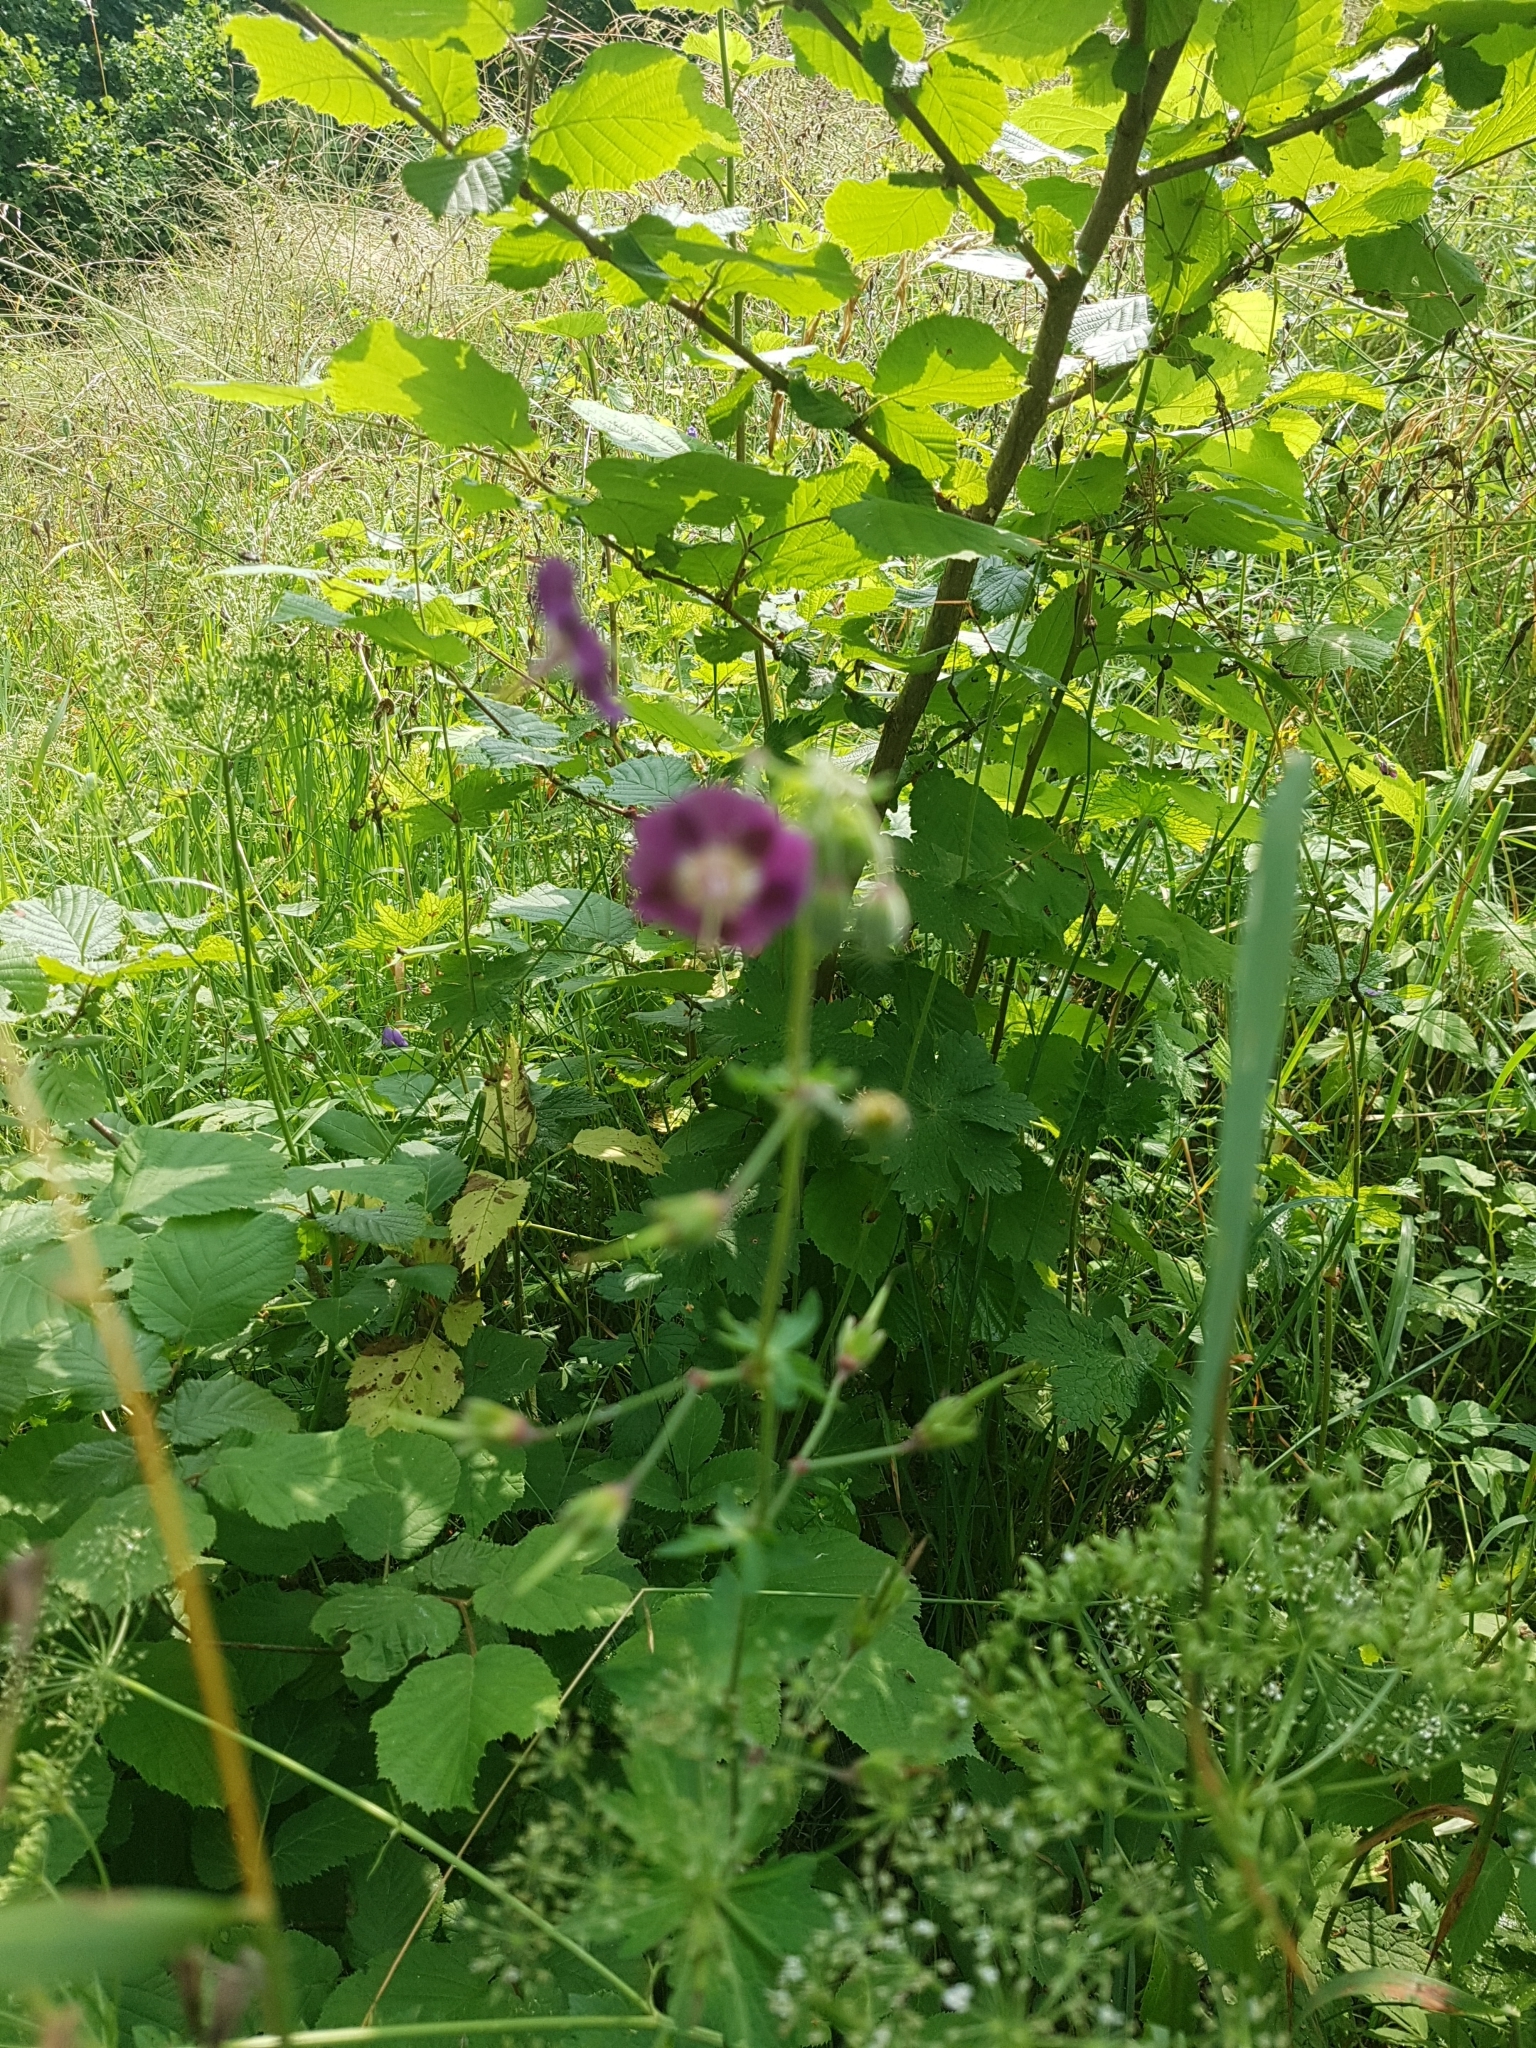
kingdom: Plantae
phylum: Tracheophyta
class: Magnoliopsida
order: Geraniales
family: Geraniaceae
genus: Geranium
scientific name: Geranium phaeum
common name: Dusky crane's-bill
